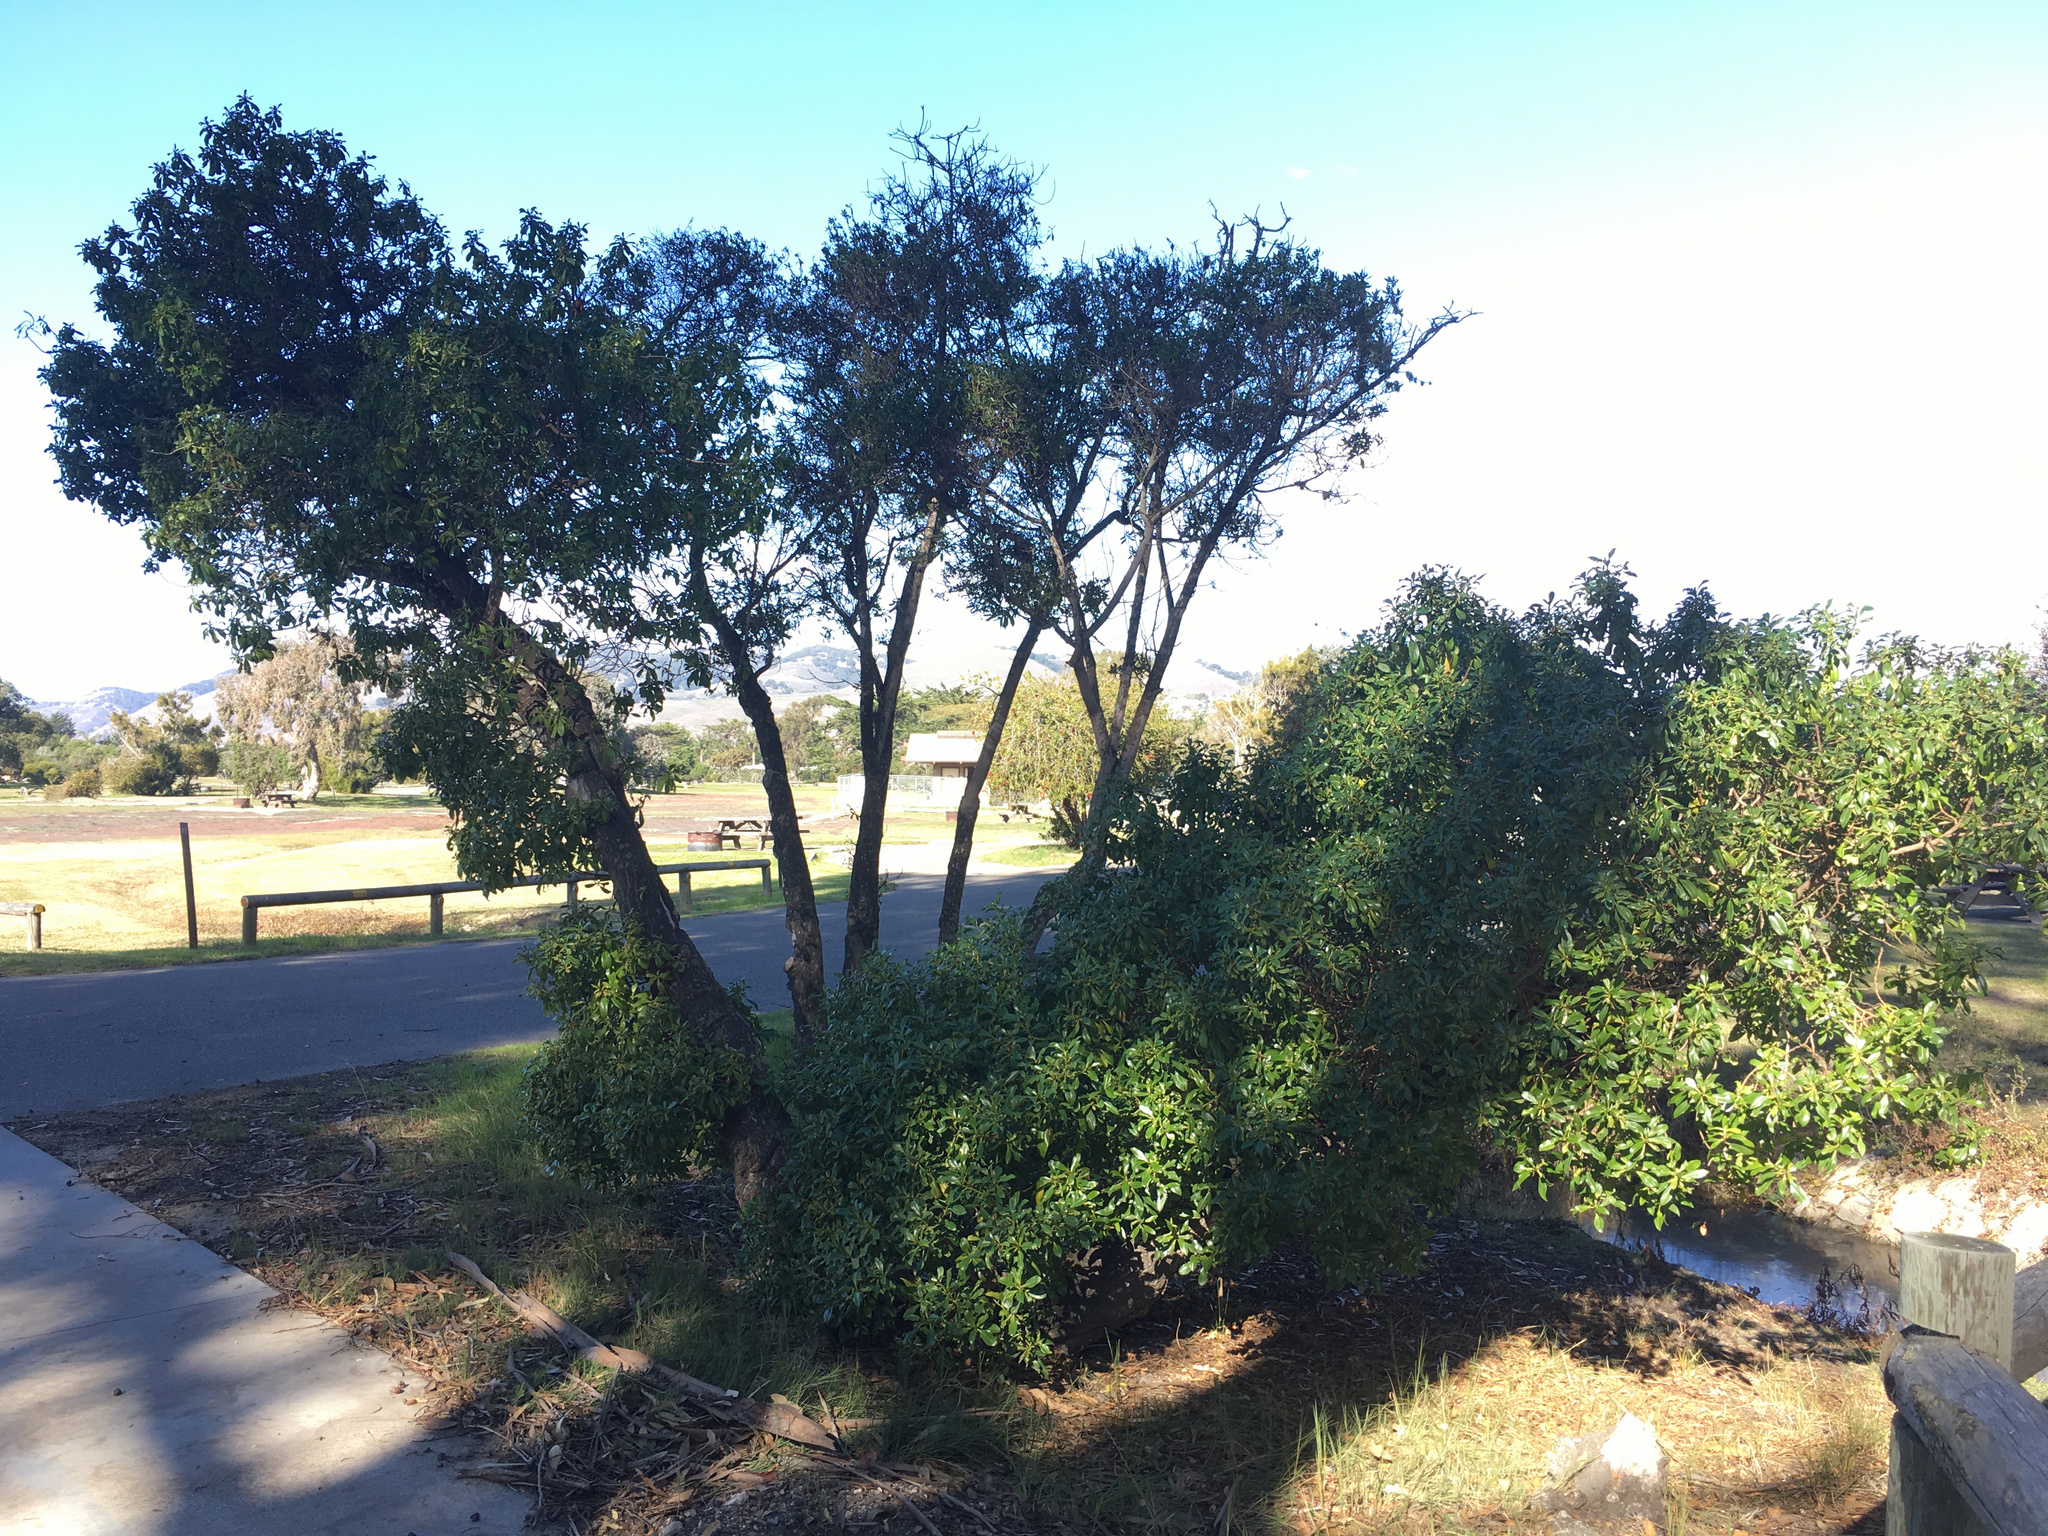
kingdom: Plantae
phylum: Tracheophyta
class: Magnoliopsida
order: Lamiales
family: Scrophulariaceae
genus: Myoporum
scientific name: Myoporum laetum
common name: Ngaio tree
